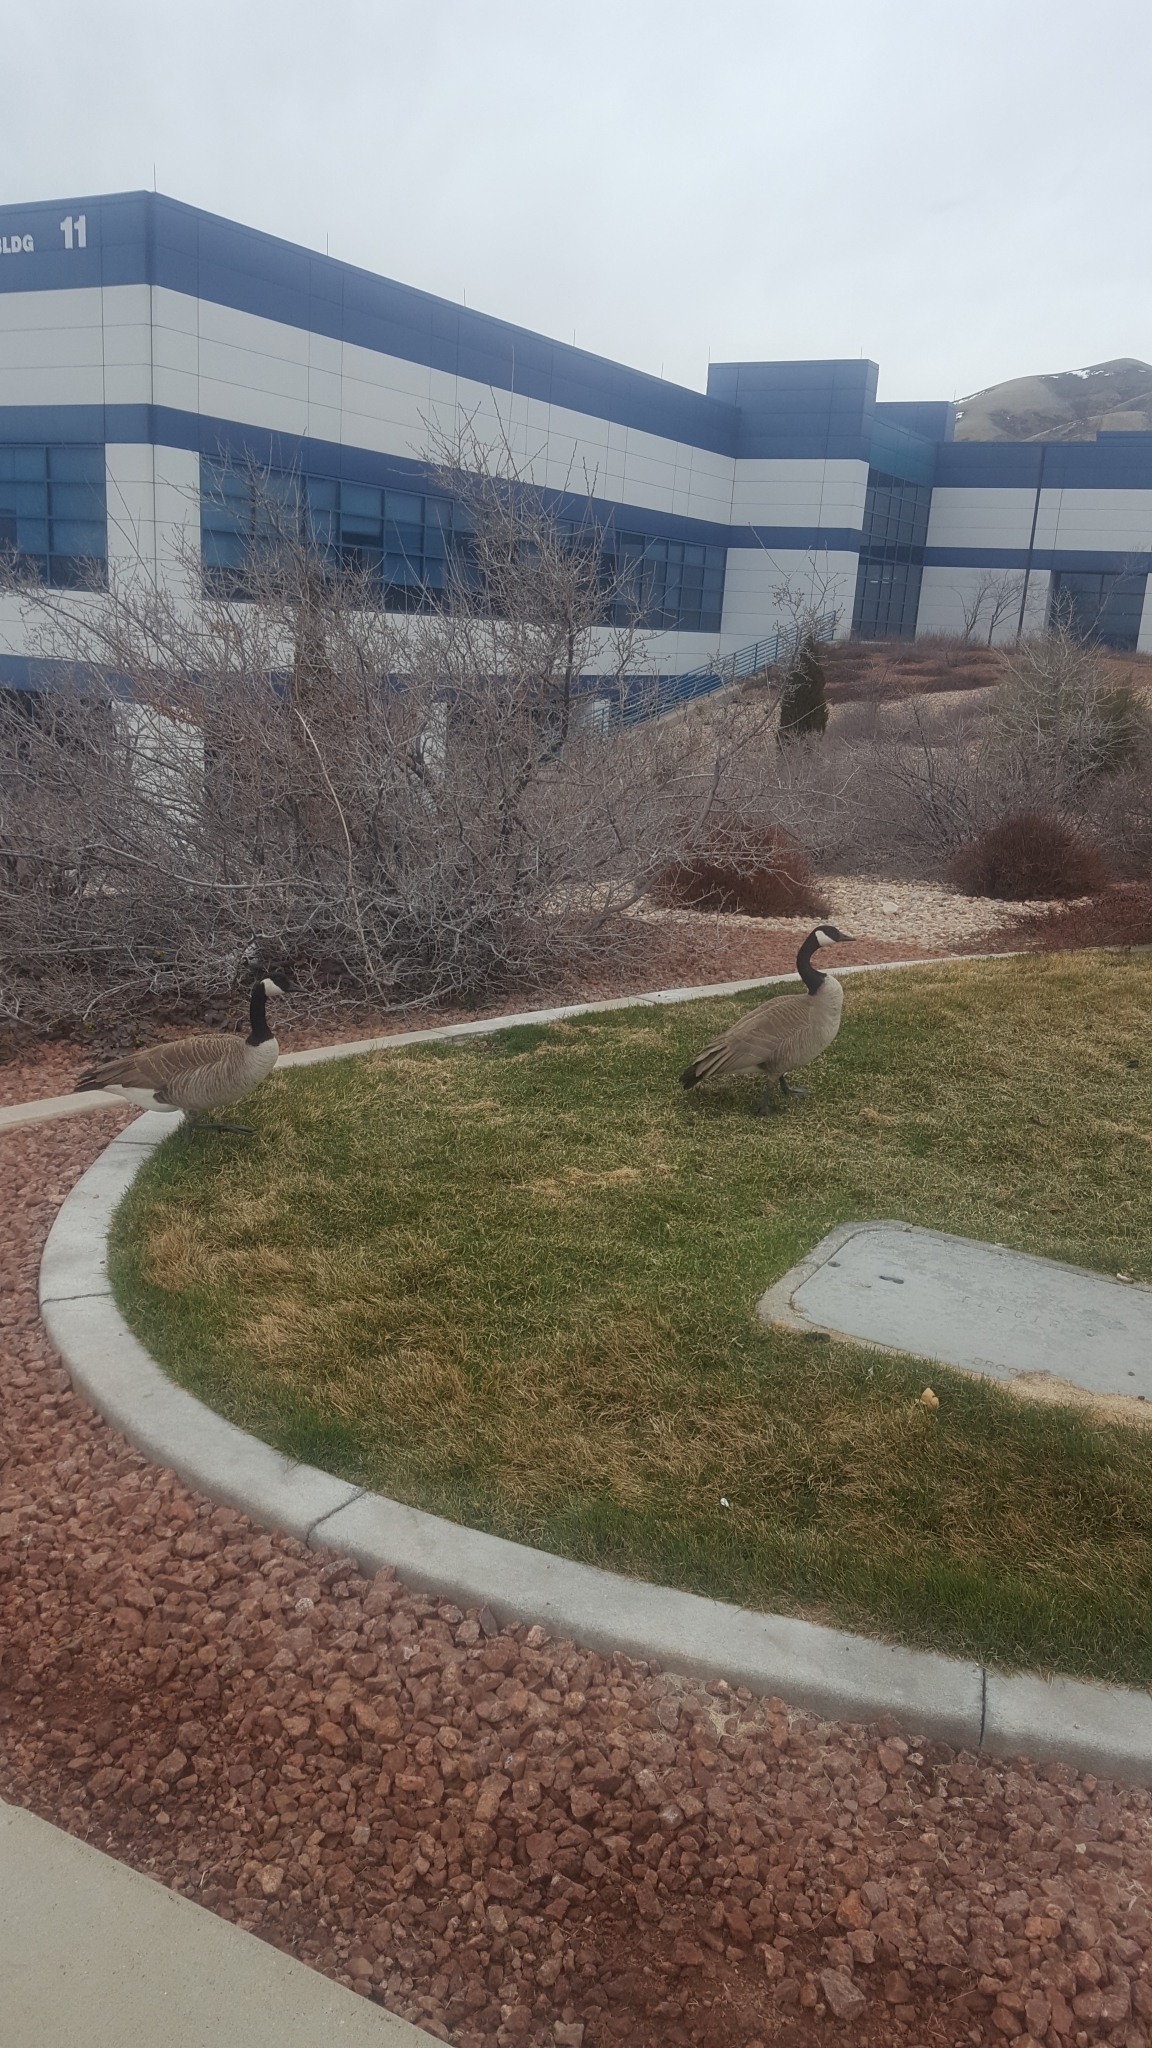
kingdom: Animalia
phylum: Chordata
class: Aves
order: Anseriformes
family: Anatidae
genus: Branta
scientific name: Branta canadensis
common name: Canada goose
